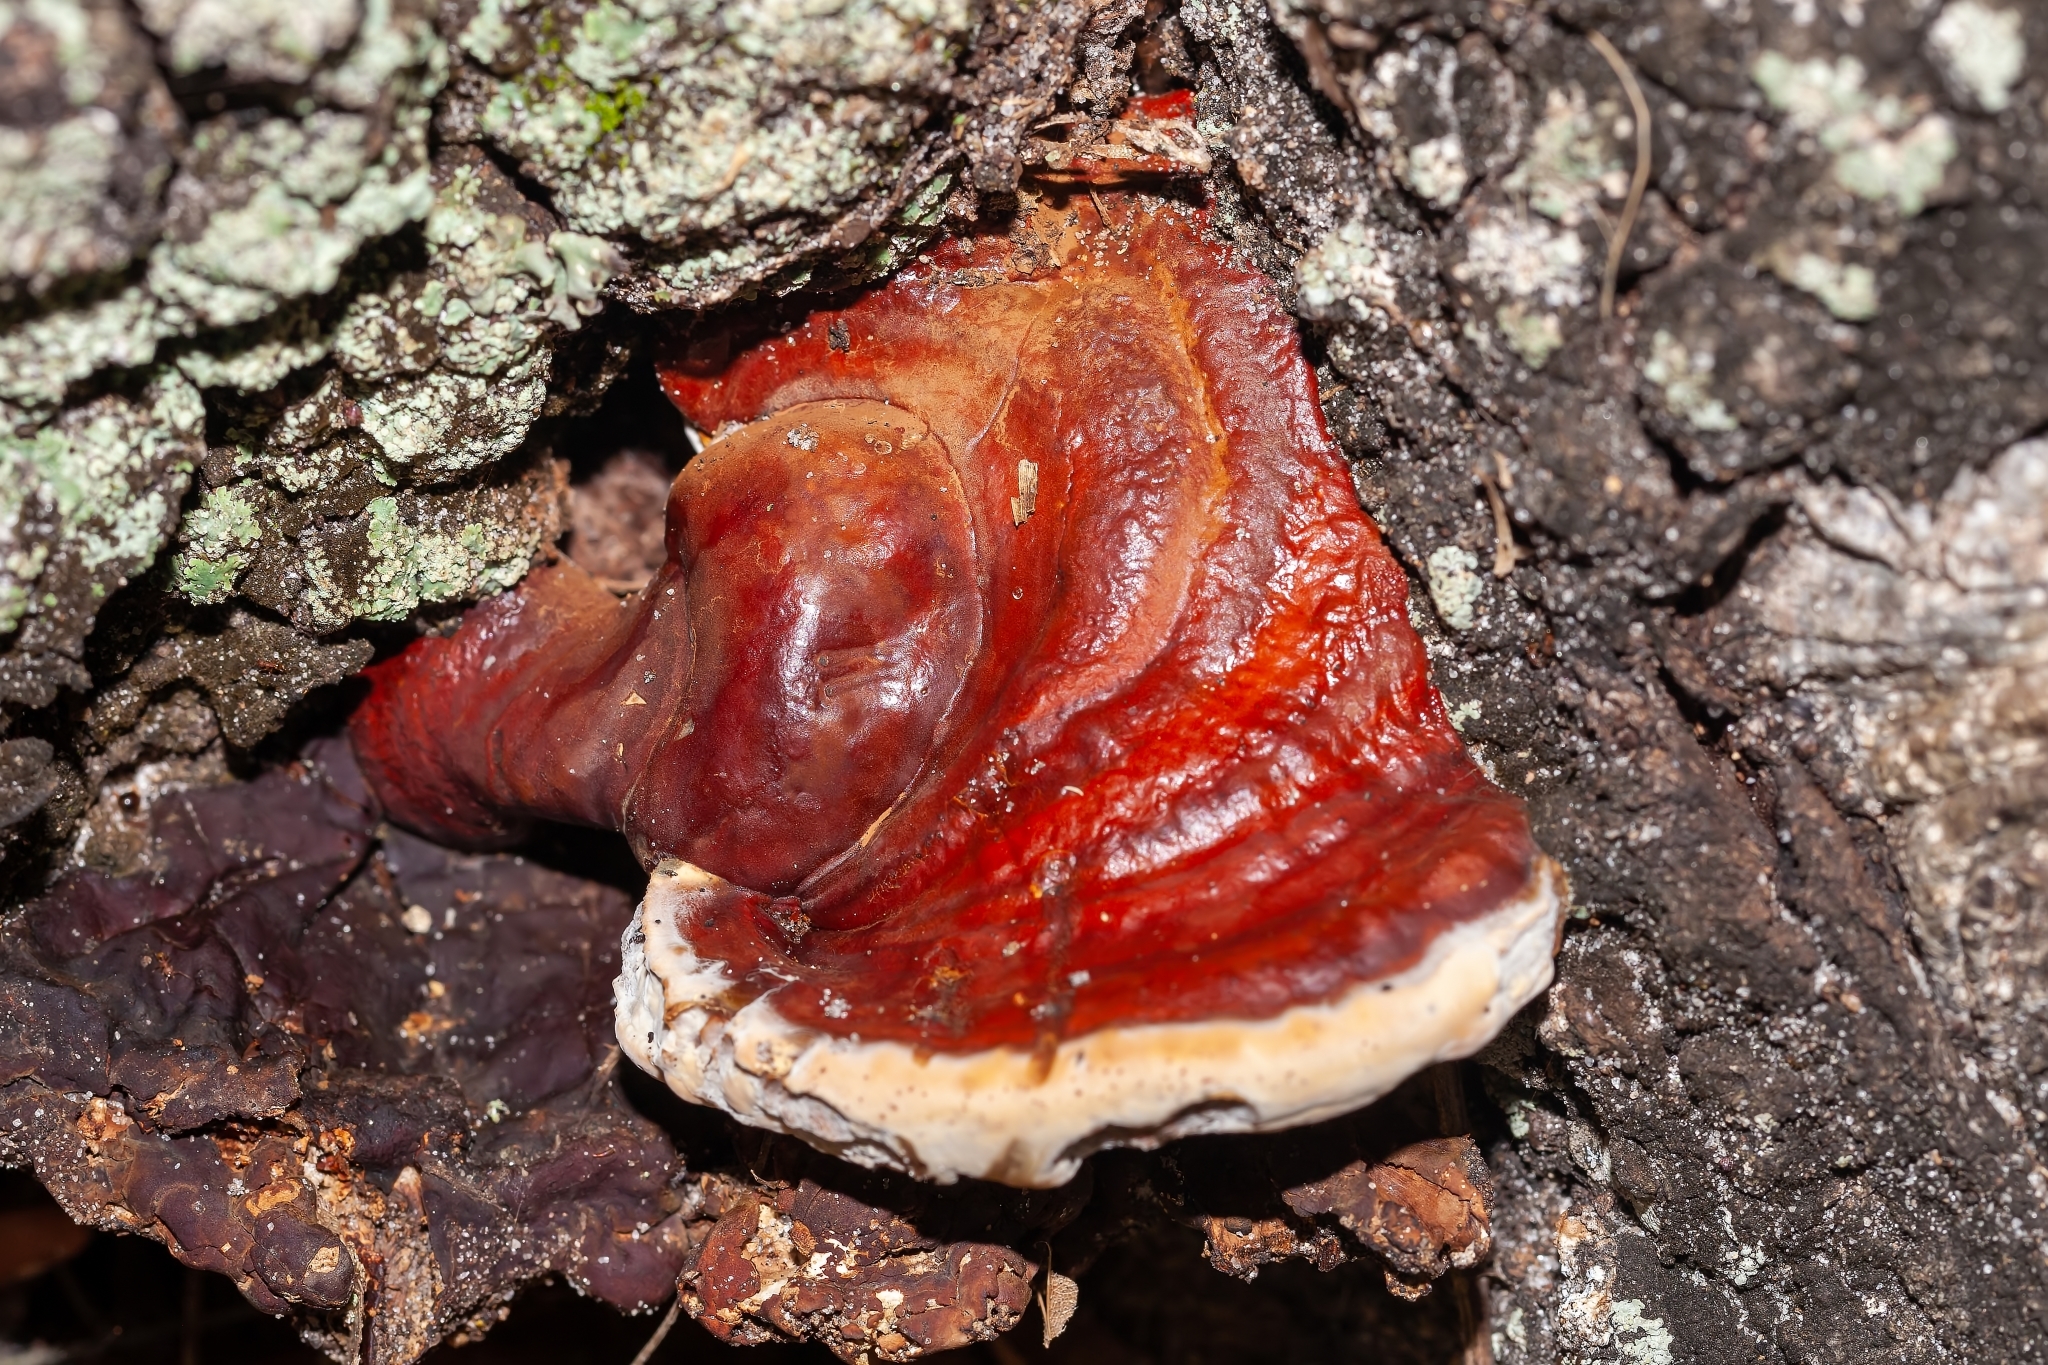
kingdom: Fungi
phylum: Basidiomycota
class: Agaricomycetes
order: Polyporales
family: Polyporaceae
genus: Ganoderma
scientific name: Ganoderma resinaceum
